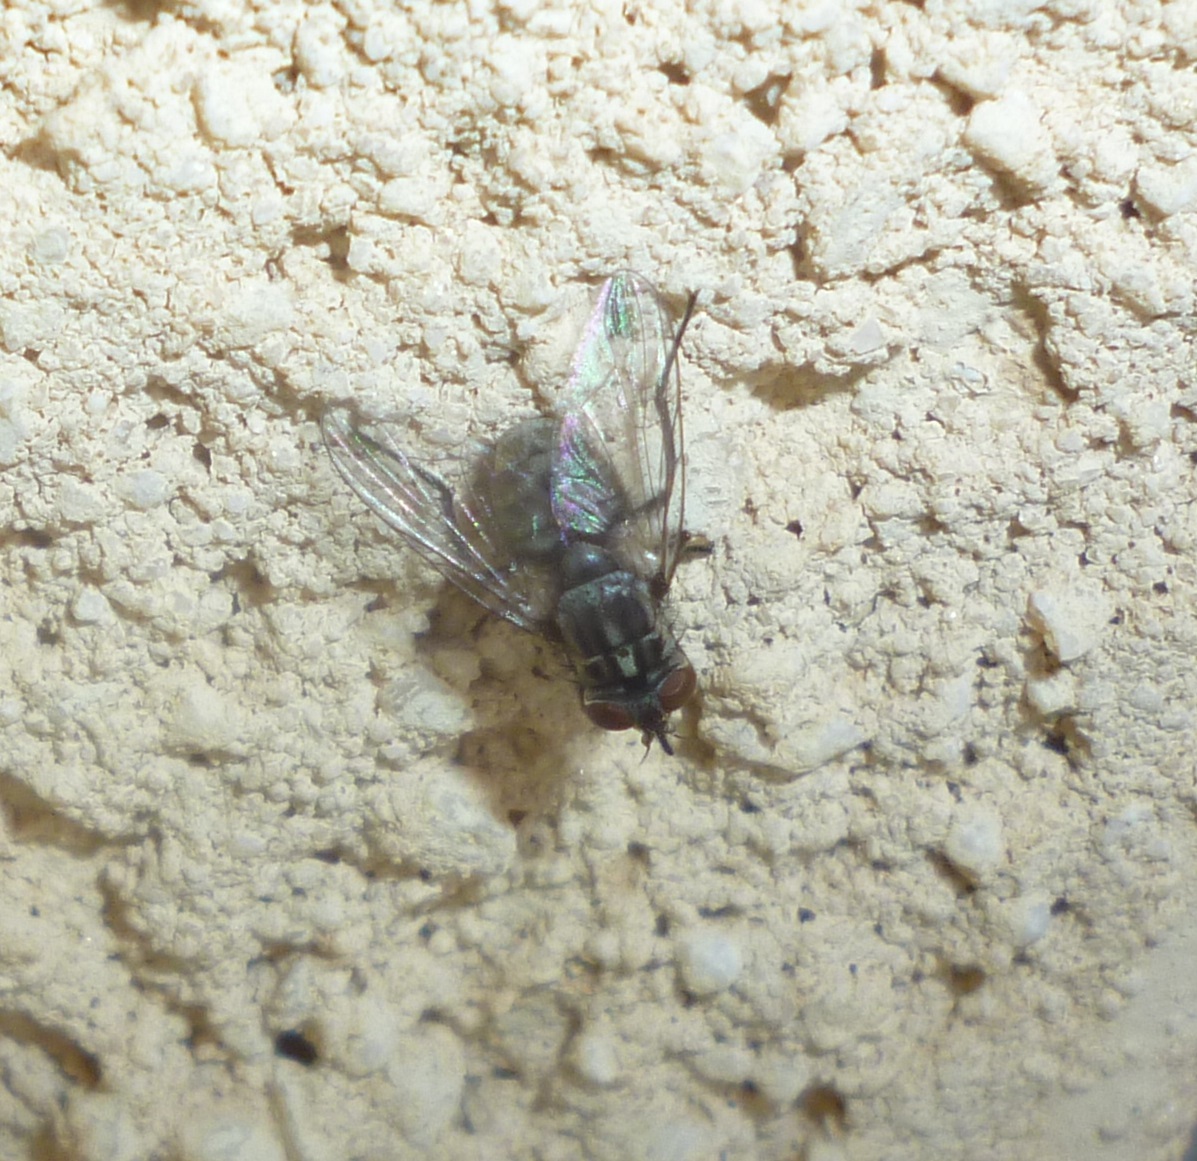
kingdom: Animalia
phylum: Arthropoda
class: Insecta
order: Diptera
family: Muscidae
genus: Stomoxys
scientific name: Stomoxys calcitrans
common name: Stable fly
